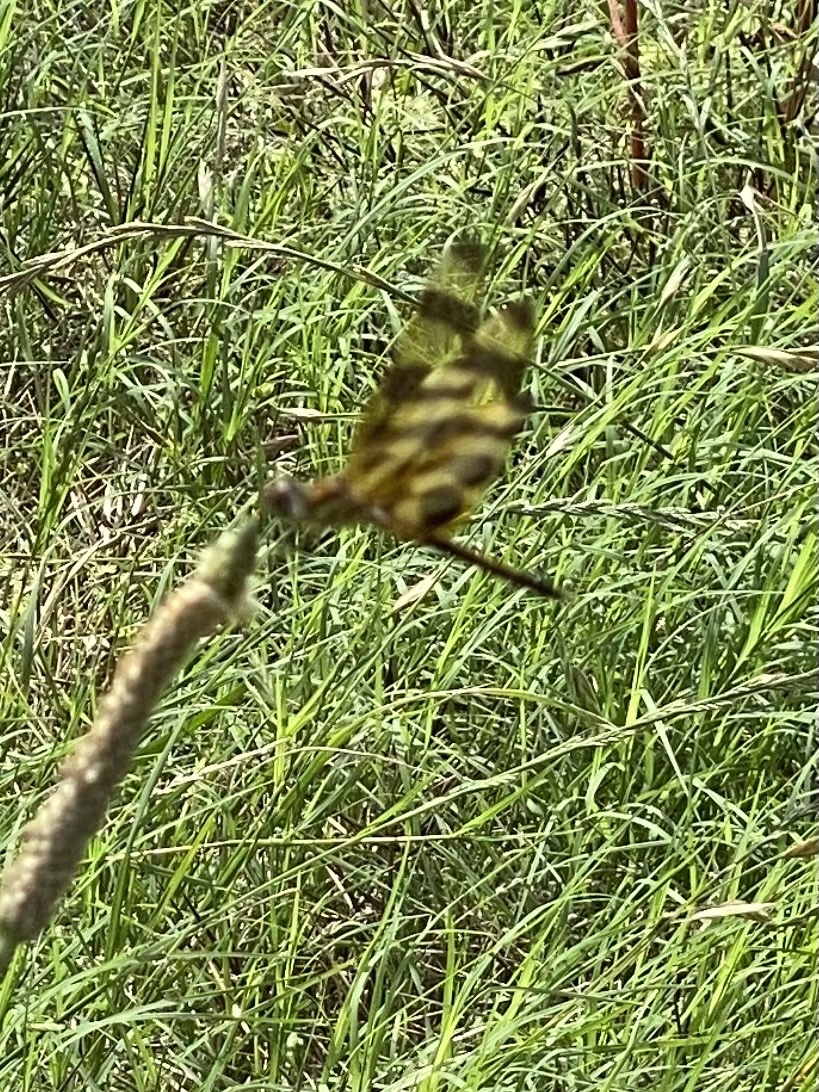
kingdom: Animalia
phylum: Arthropoda
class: Insecta
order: Odonata
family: Libellulidae
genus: Celithemis
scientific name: Celithemis eponina
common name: Halloween pennant
